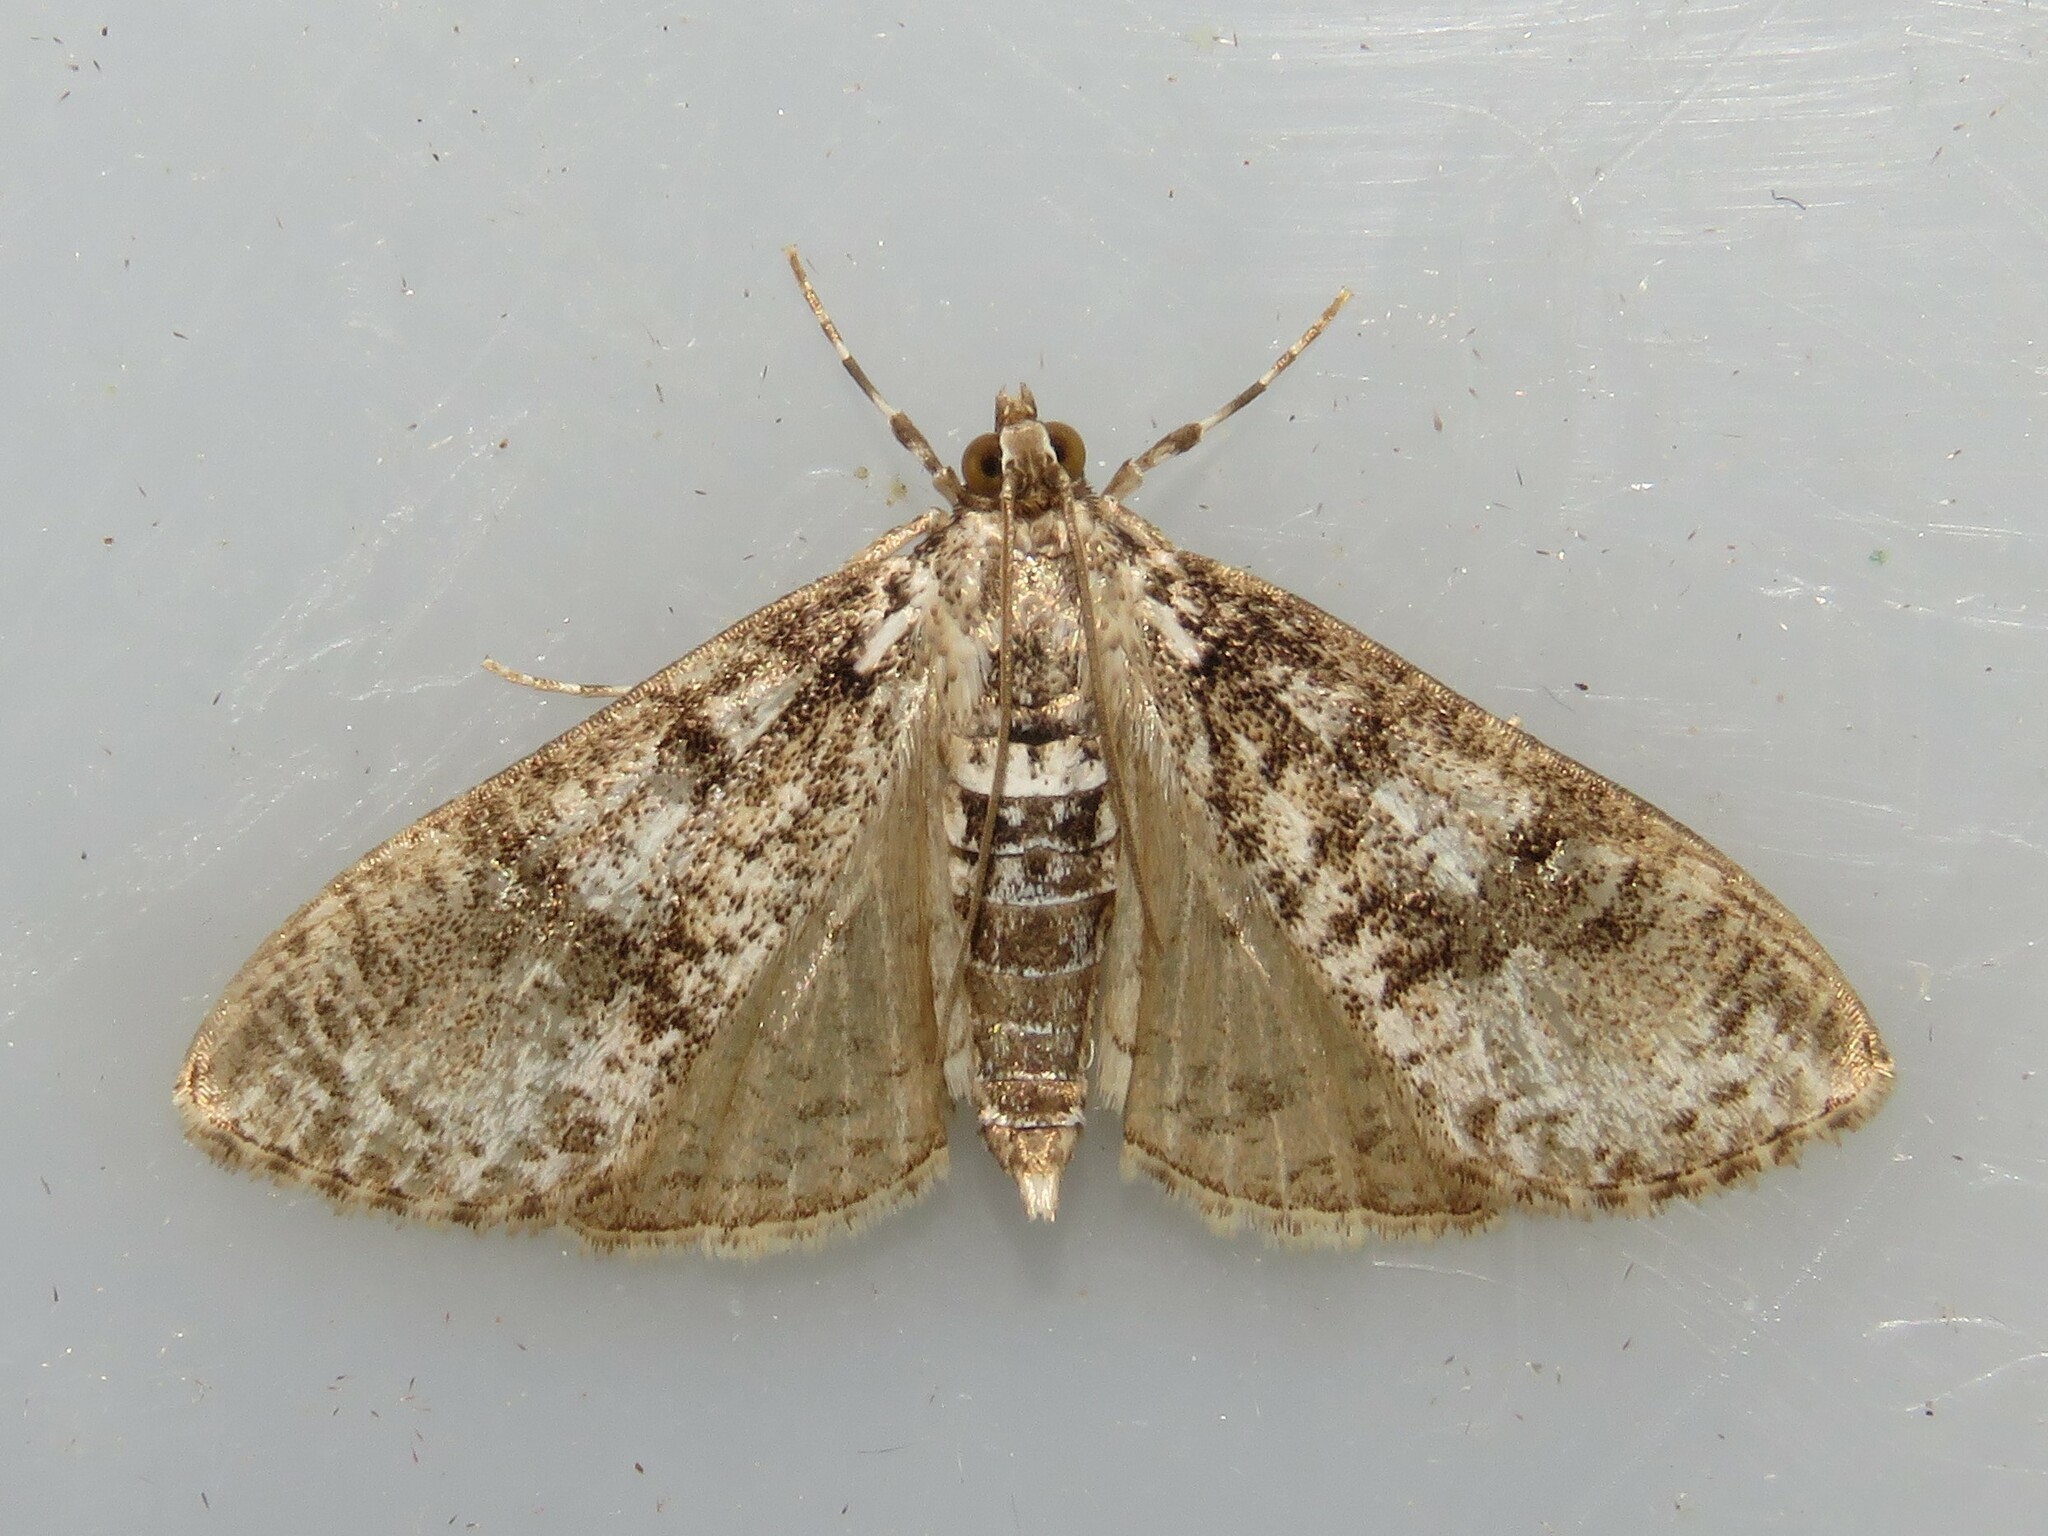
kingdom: Animalia
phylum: Arthropoda
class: Insecta
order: Lepidoptera
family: Crambidae
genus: Palpita
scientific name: Palpita magniferalis
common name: Splendid palpita moth
